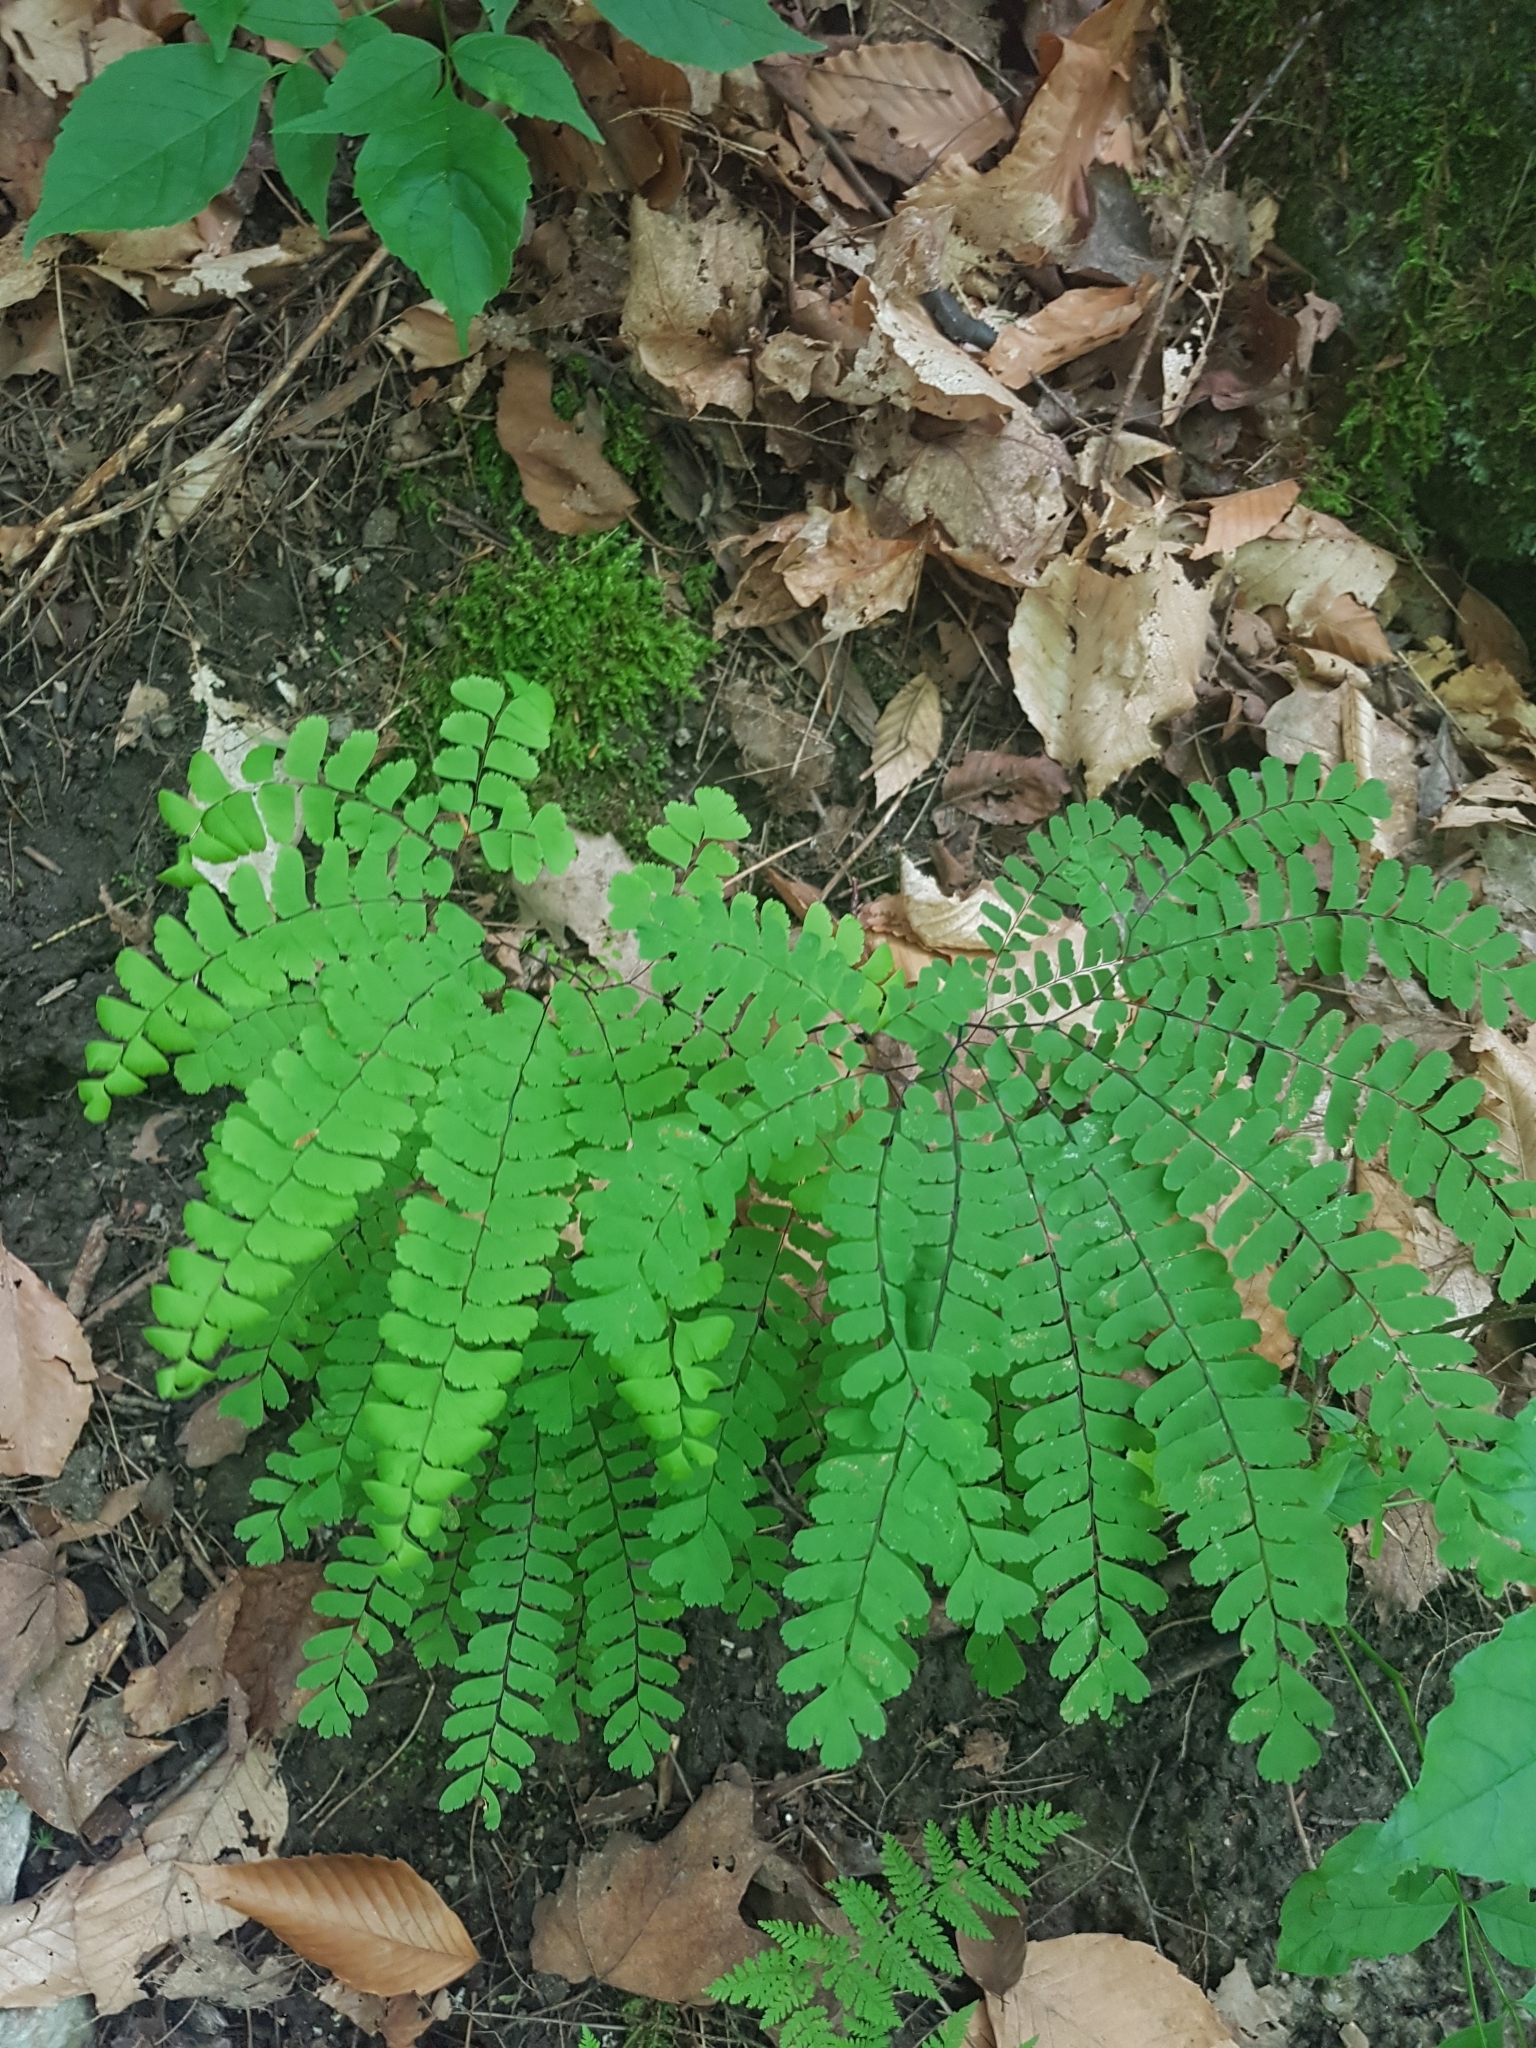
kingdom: Plantae
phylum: Tracheophyta
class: Polypodiopsida
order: Polypodiales
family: Pteridaceae
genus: Adiantum
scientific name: Adiantum pedatum
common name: Five-finger fern
